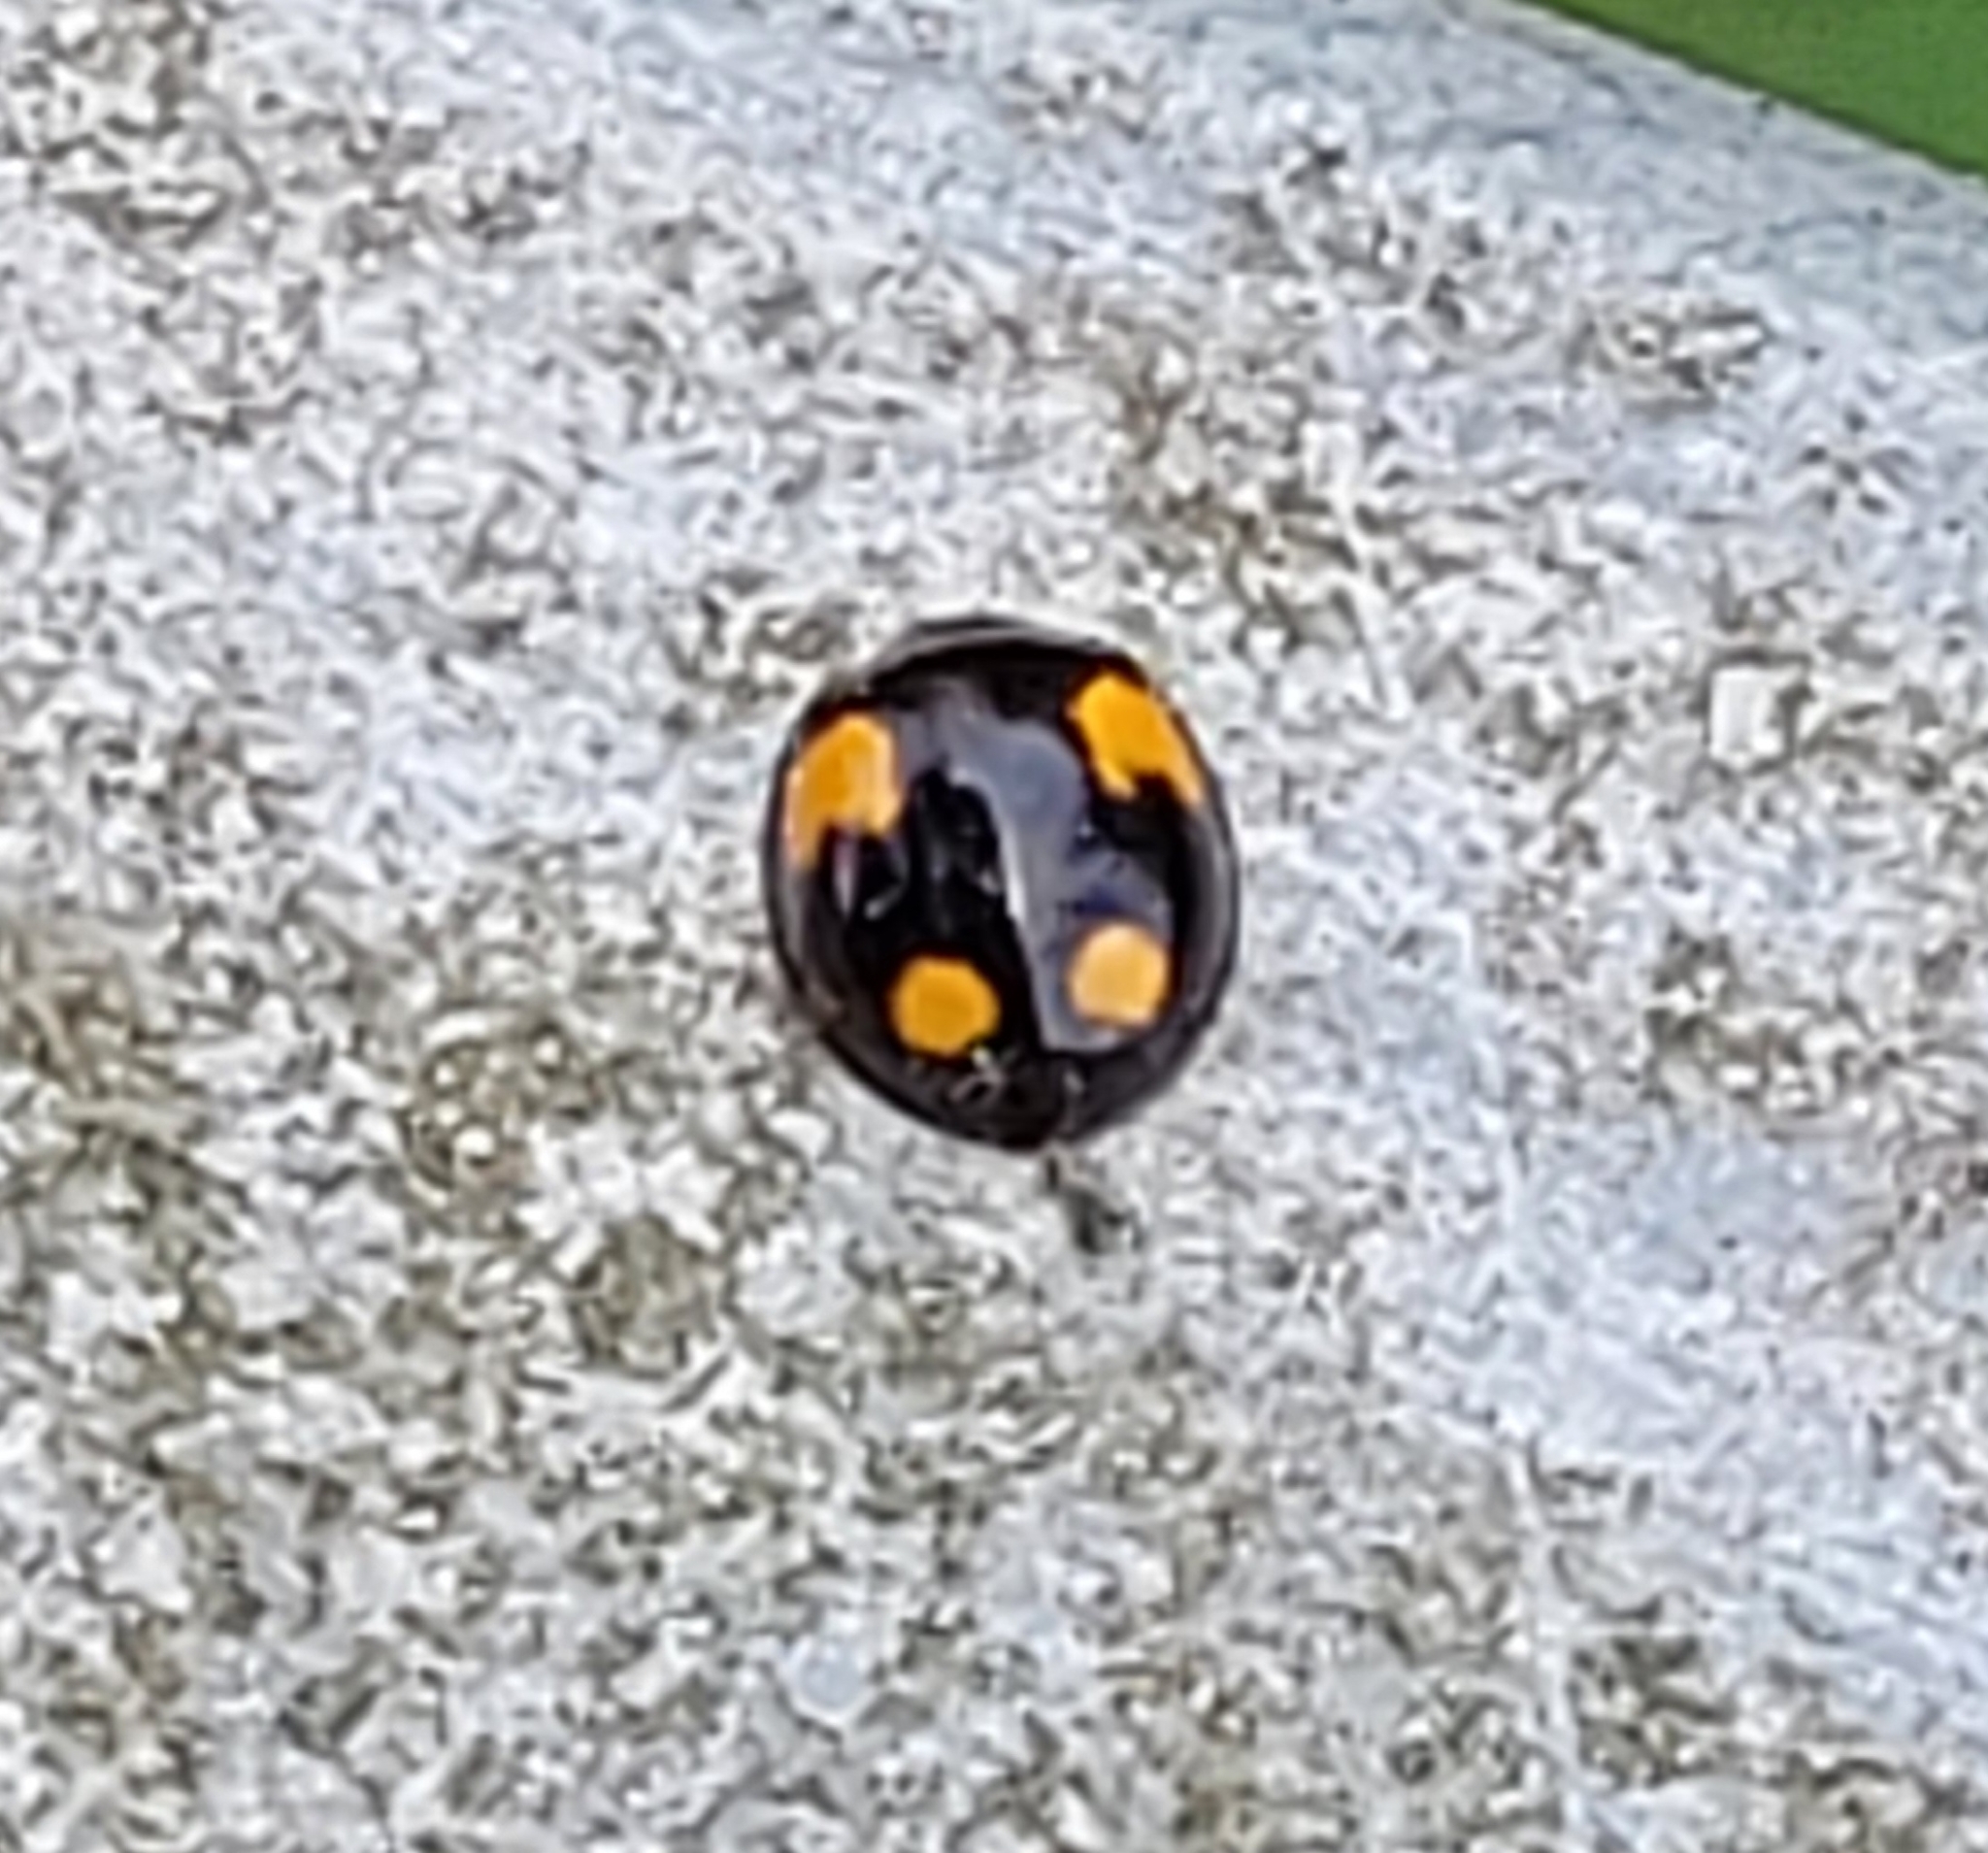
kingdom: Animalia
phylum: Arthropoda
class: Insecta
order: Coleoptera
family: Coccinellidae
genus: Harmonia
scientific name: Harmonia axyridis
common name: Harlequin ladybird
